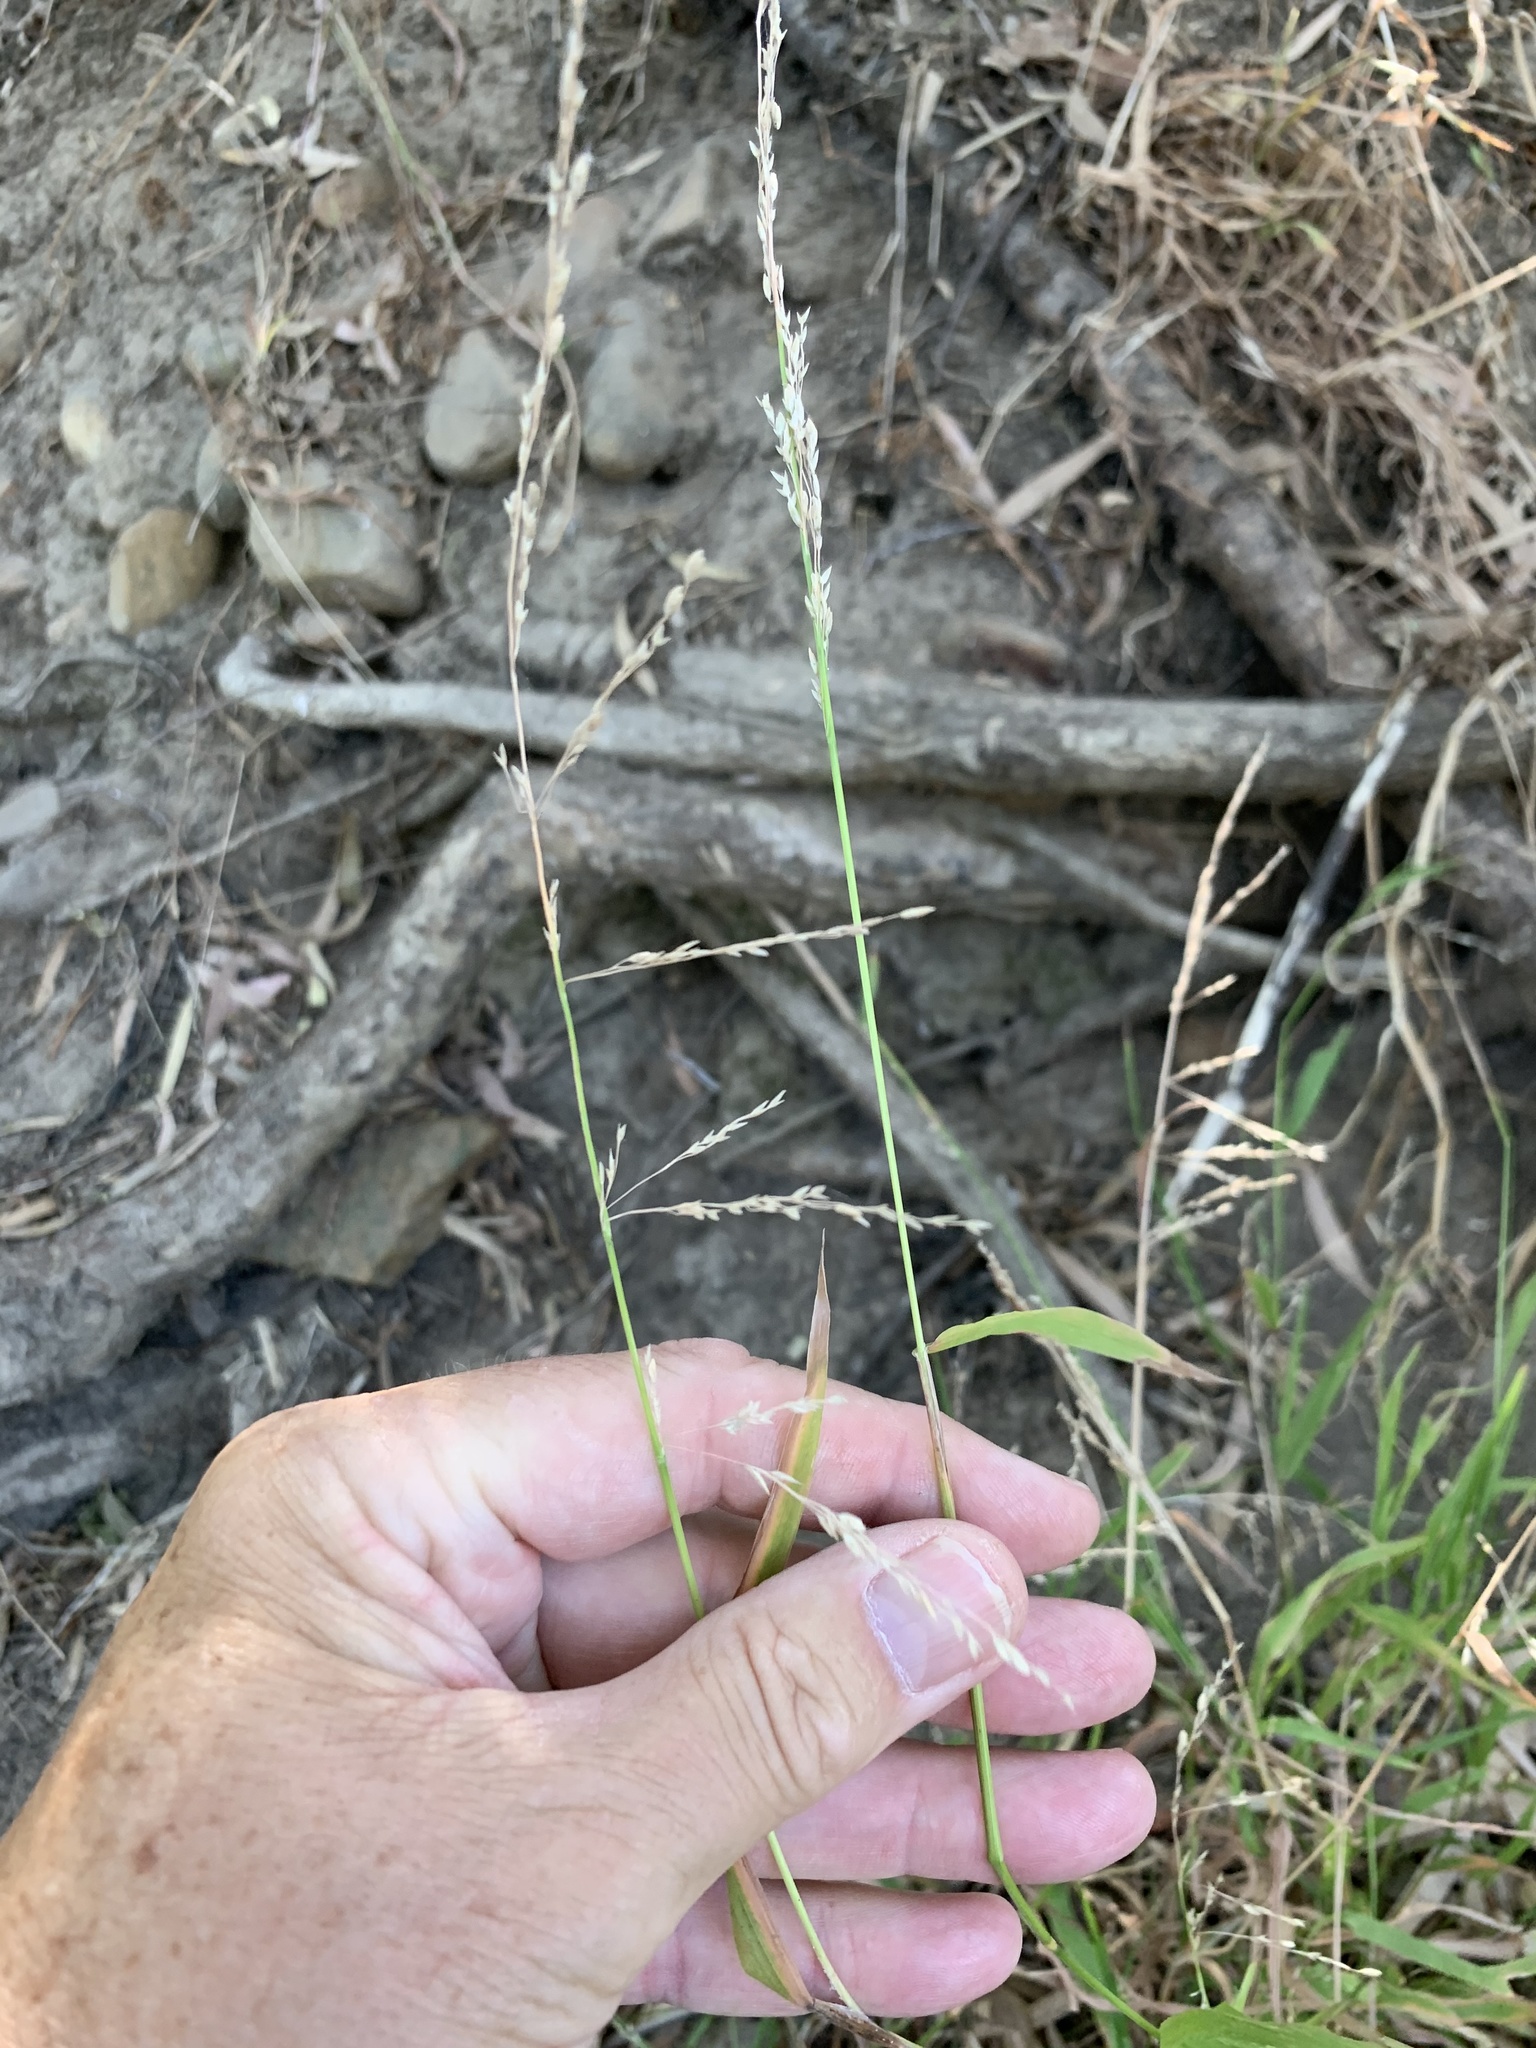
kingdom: Plantae
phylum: Tracheophyta
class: Liliopsida
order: Poales
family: Poaceae
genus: Ehrharta
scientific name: Ehrharta erecta
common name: Panic veldtgrass
